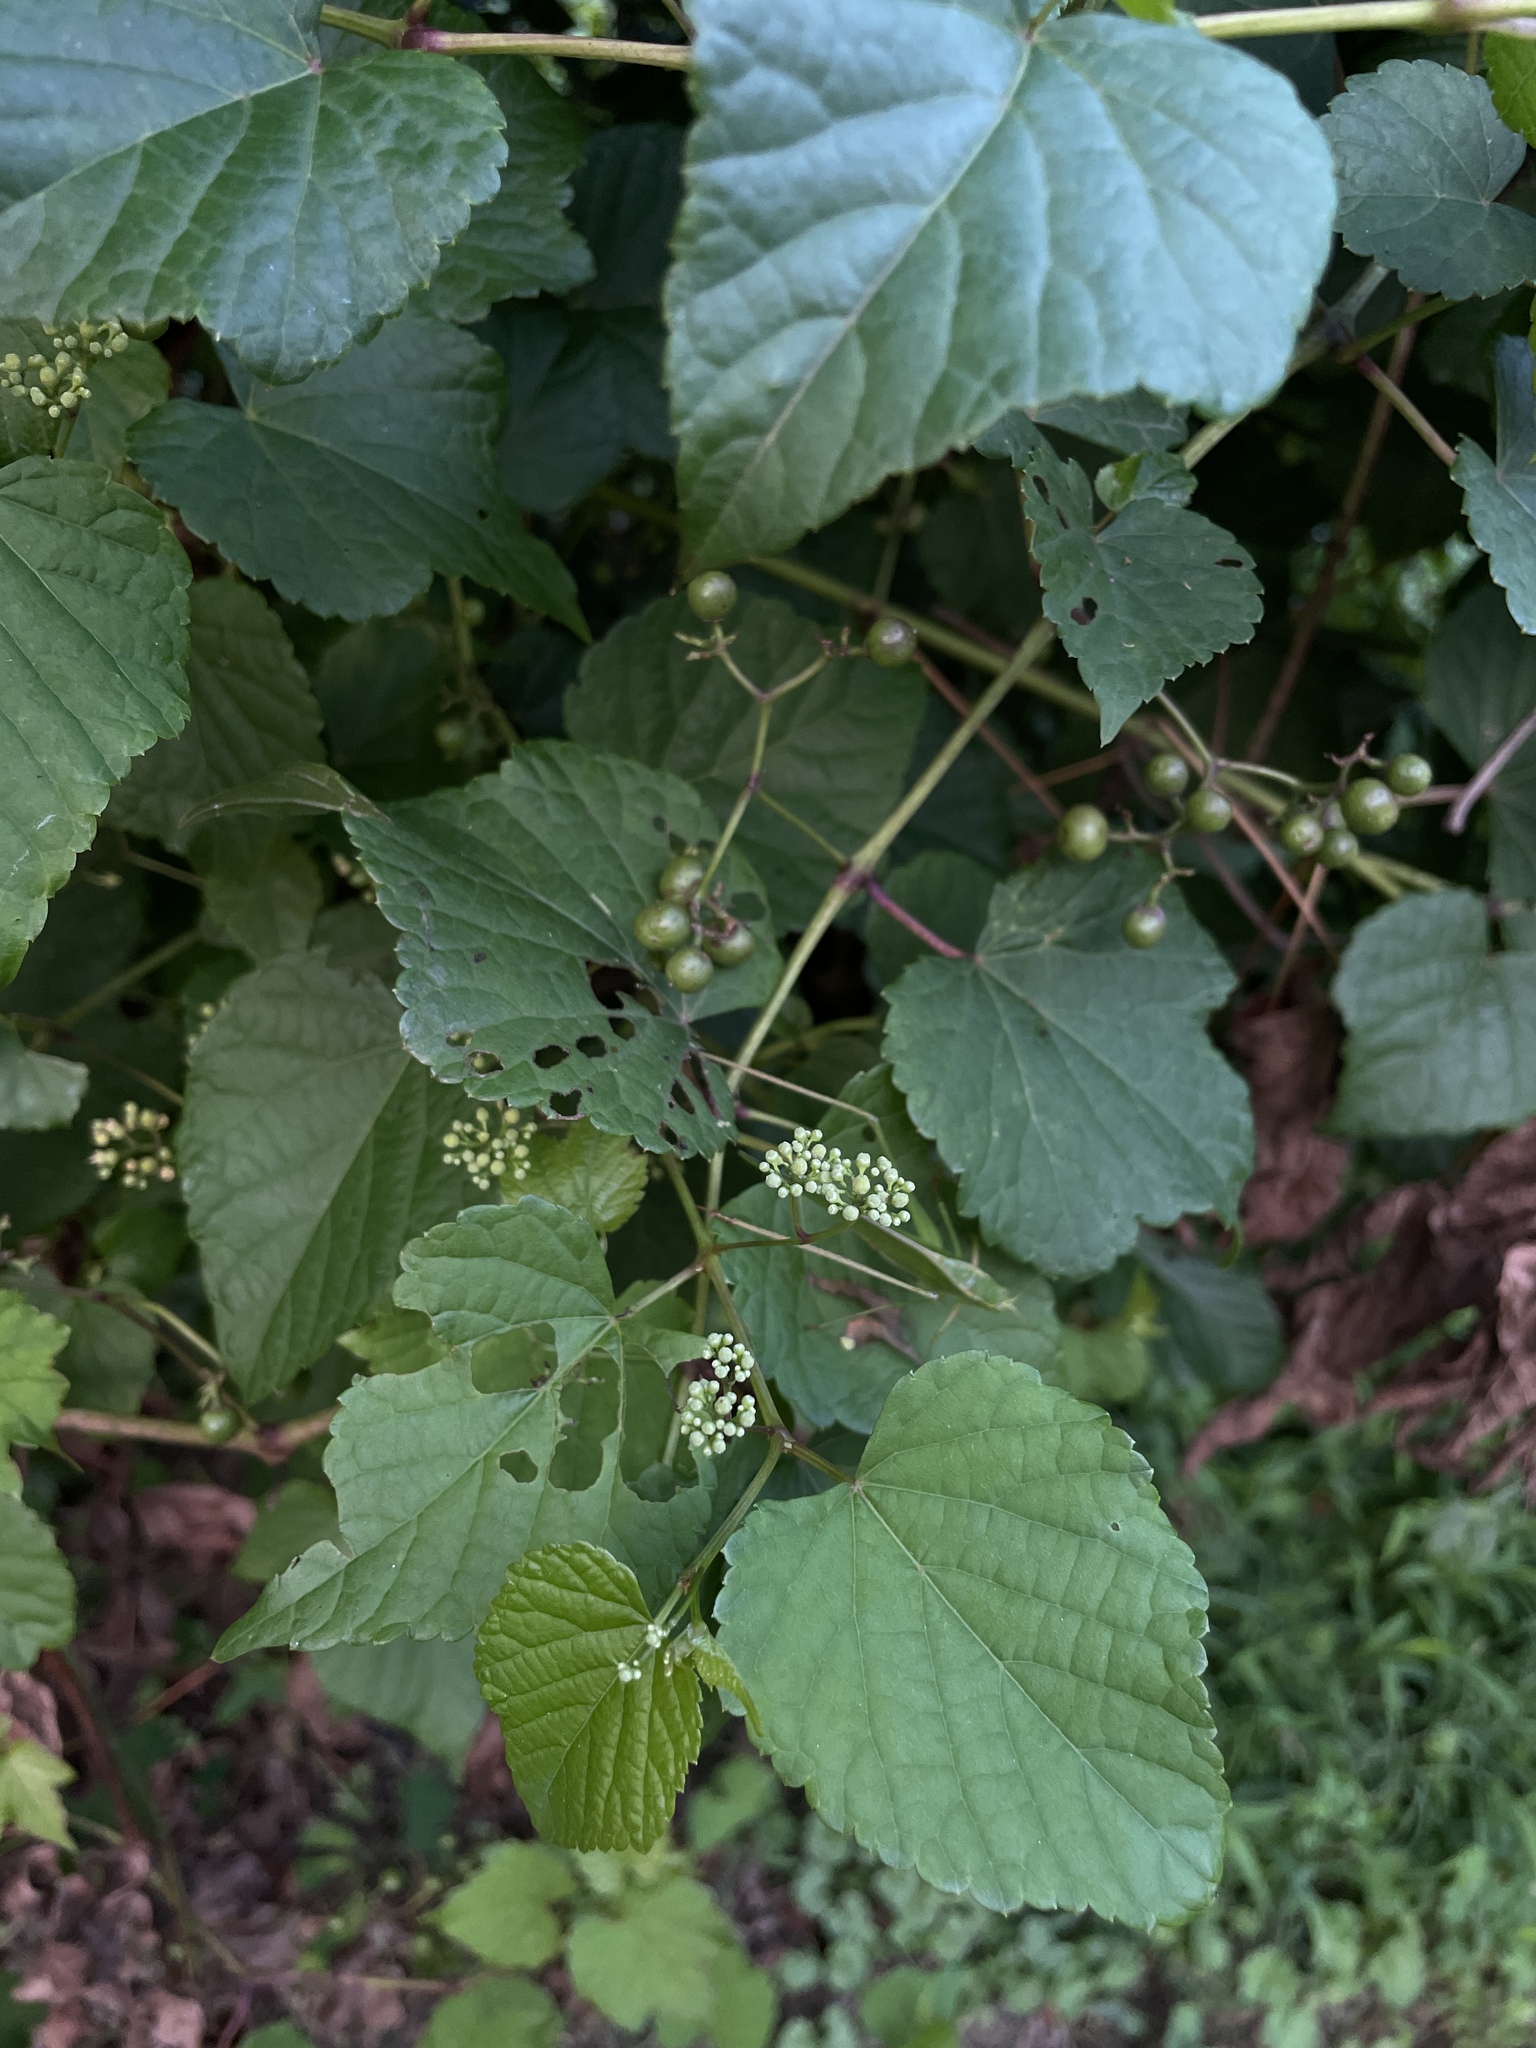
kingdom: Plantae
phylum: Tracheophyta
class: Magnoliopsida
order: Vitales
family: Vitaceae
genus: Ampelopsis
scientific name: Ampelopsis glandulosa
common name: Amur peppervine
